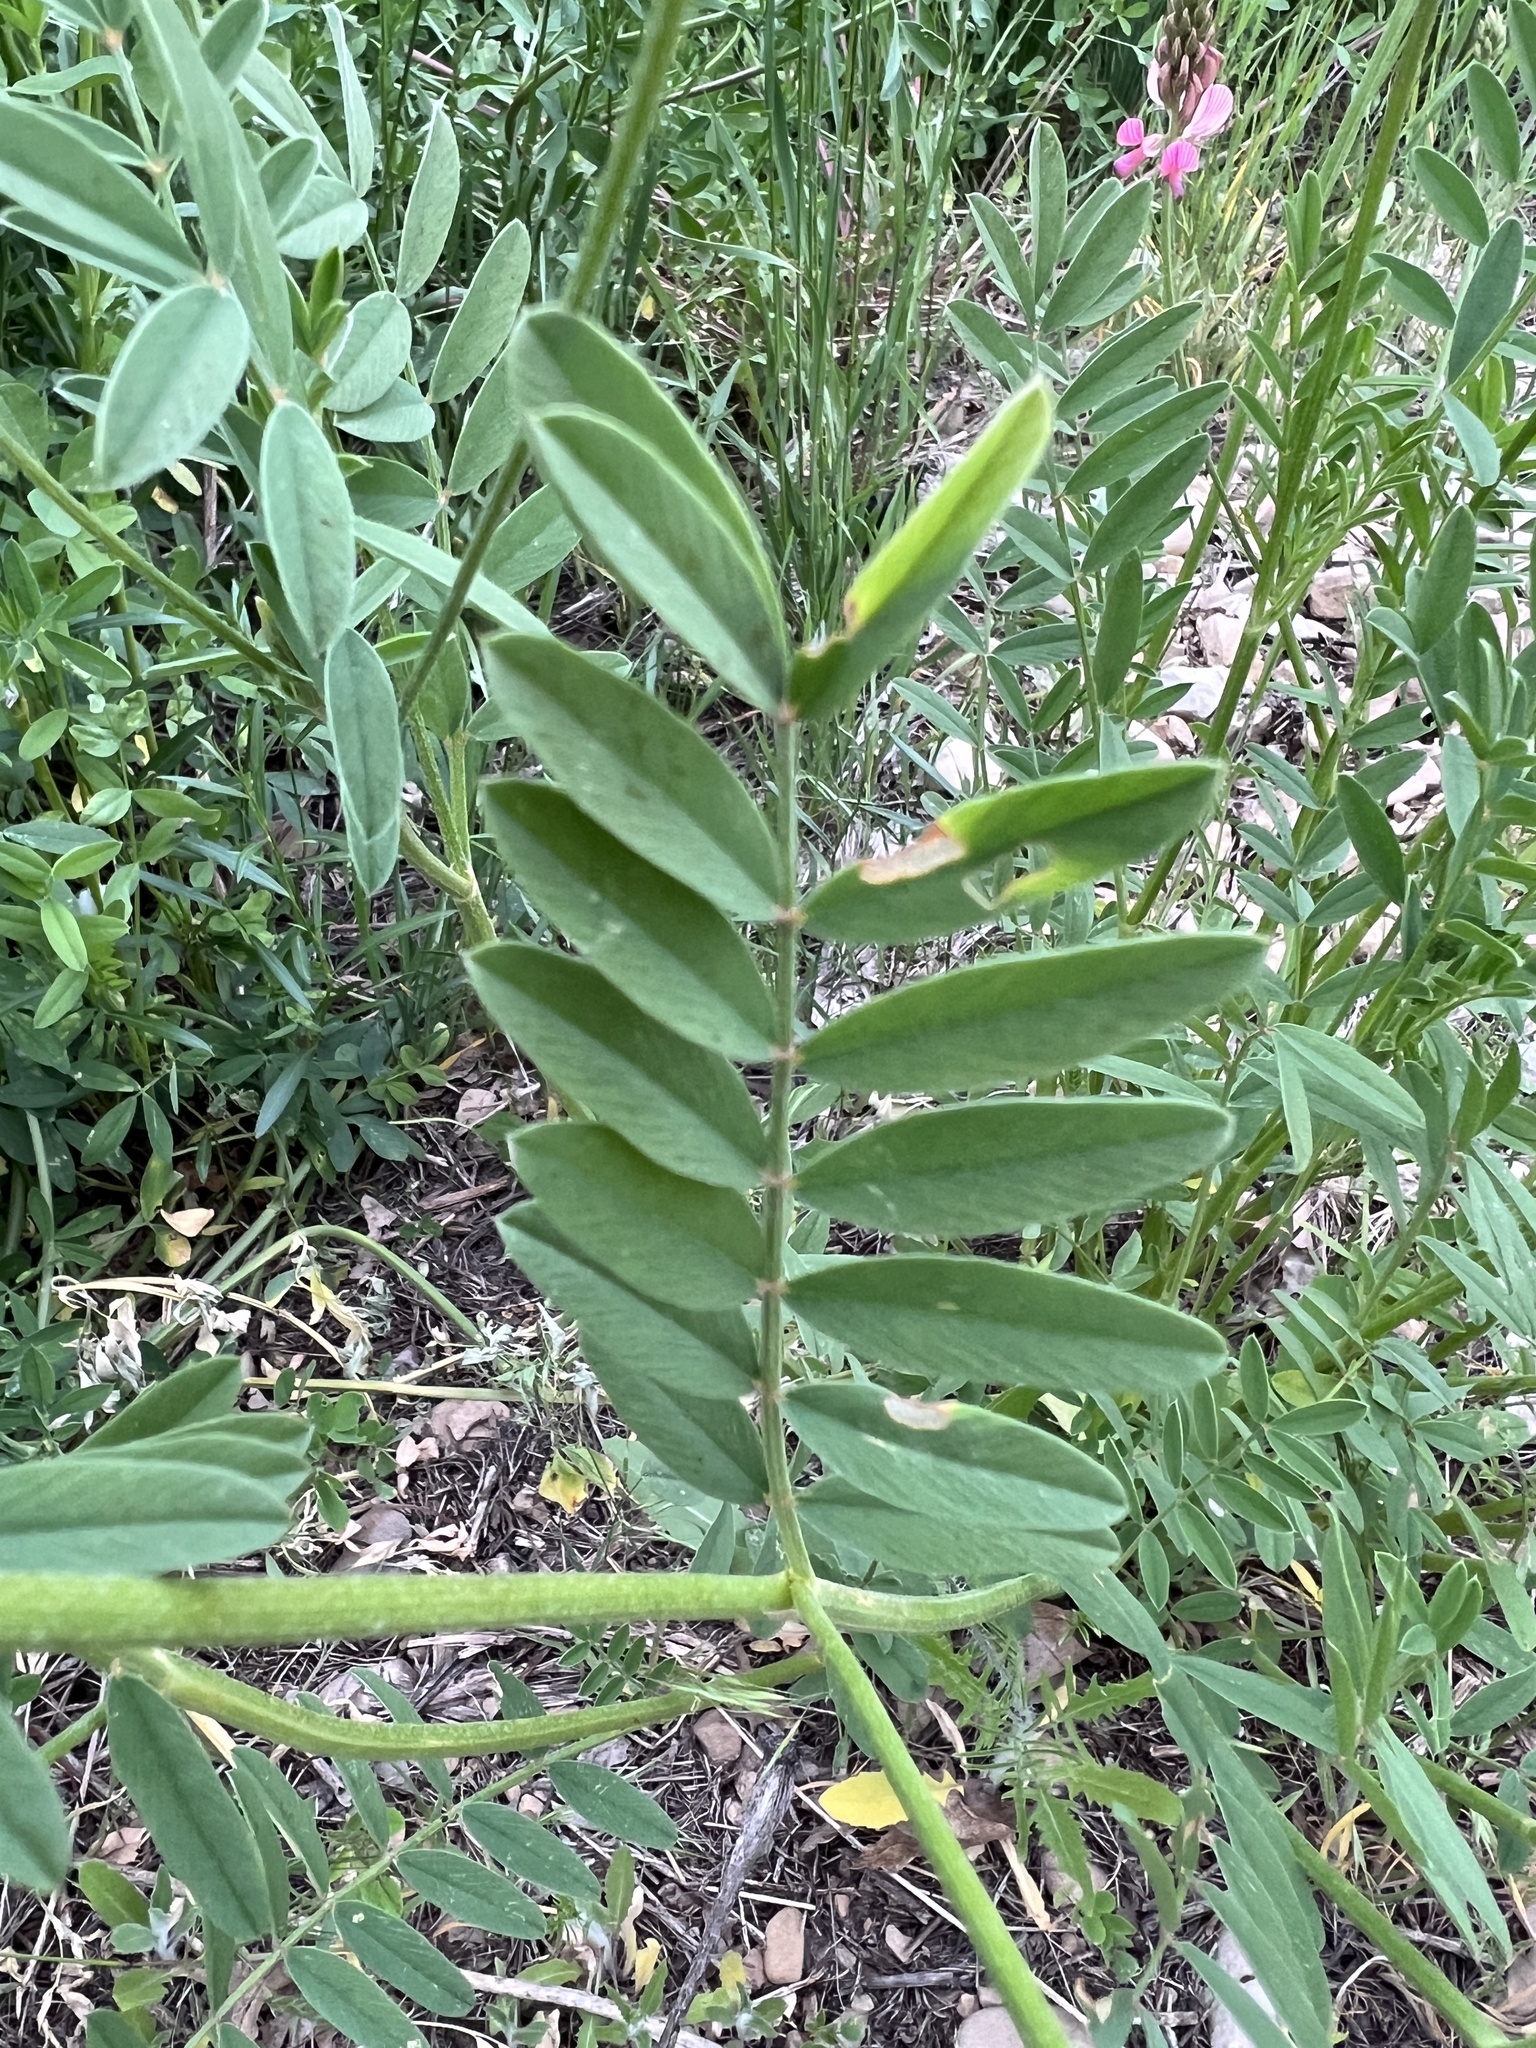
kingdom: Plantae
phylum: Tracheophyta
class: Magnoliopsida
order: Fabales
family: Fabaceae
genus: Onobrychis
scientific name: Onobrychis viciifolia
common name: Sainfoin
